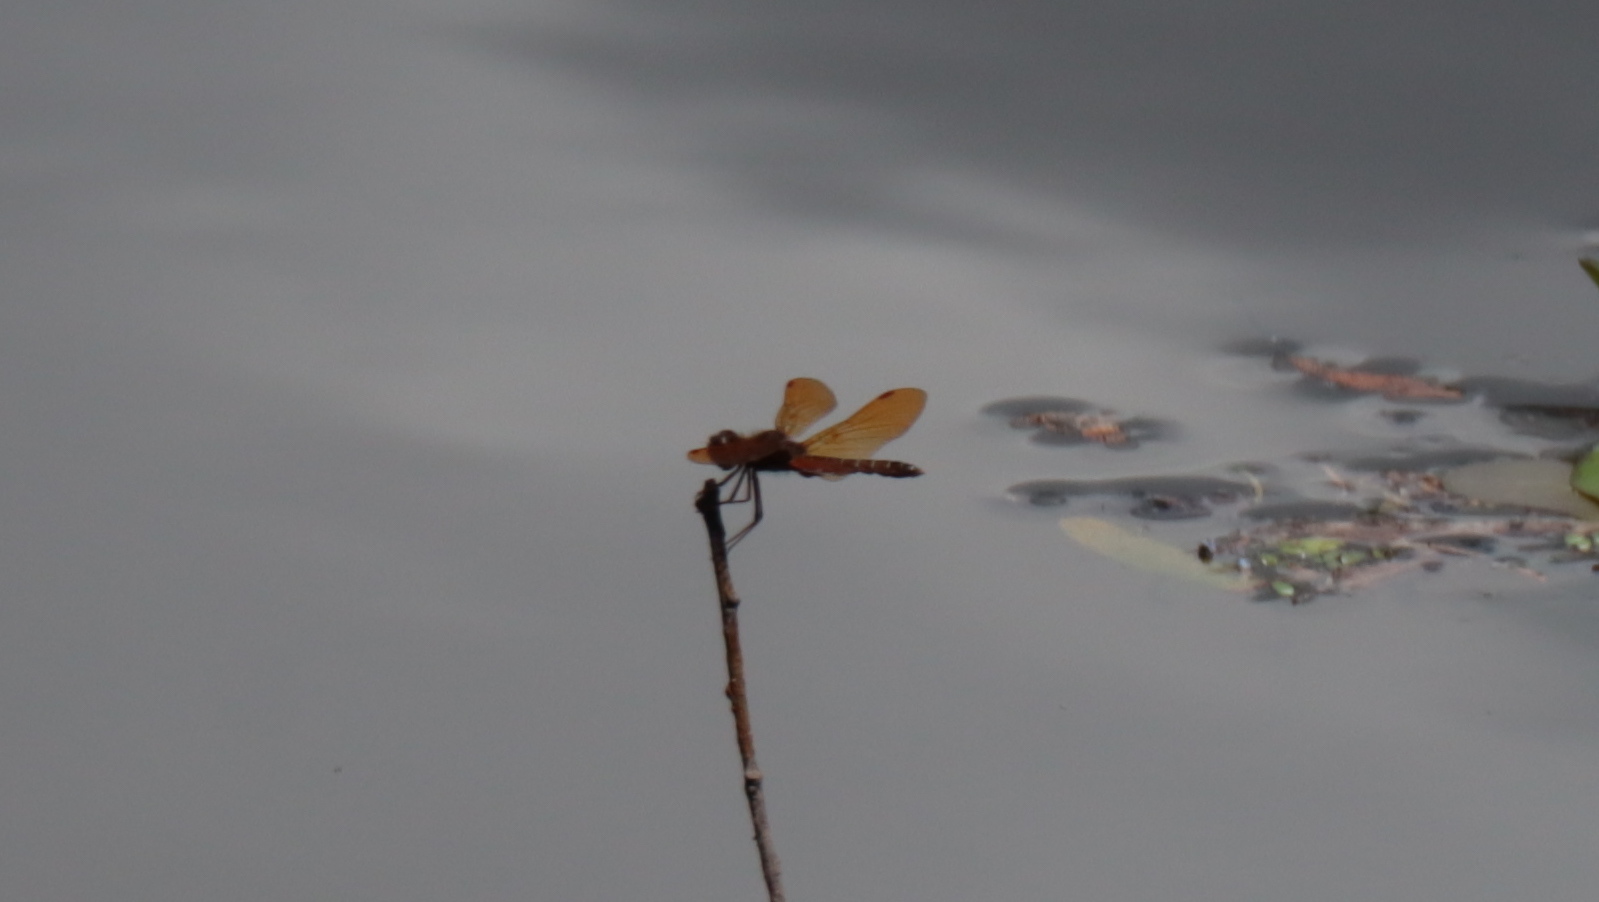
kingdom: Animalia
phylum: Arthropoda
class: Insecta
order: Odonata
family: Libellulidae
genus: Perithemis
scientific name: Perithemis tenera
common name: Eastern amberwing
